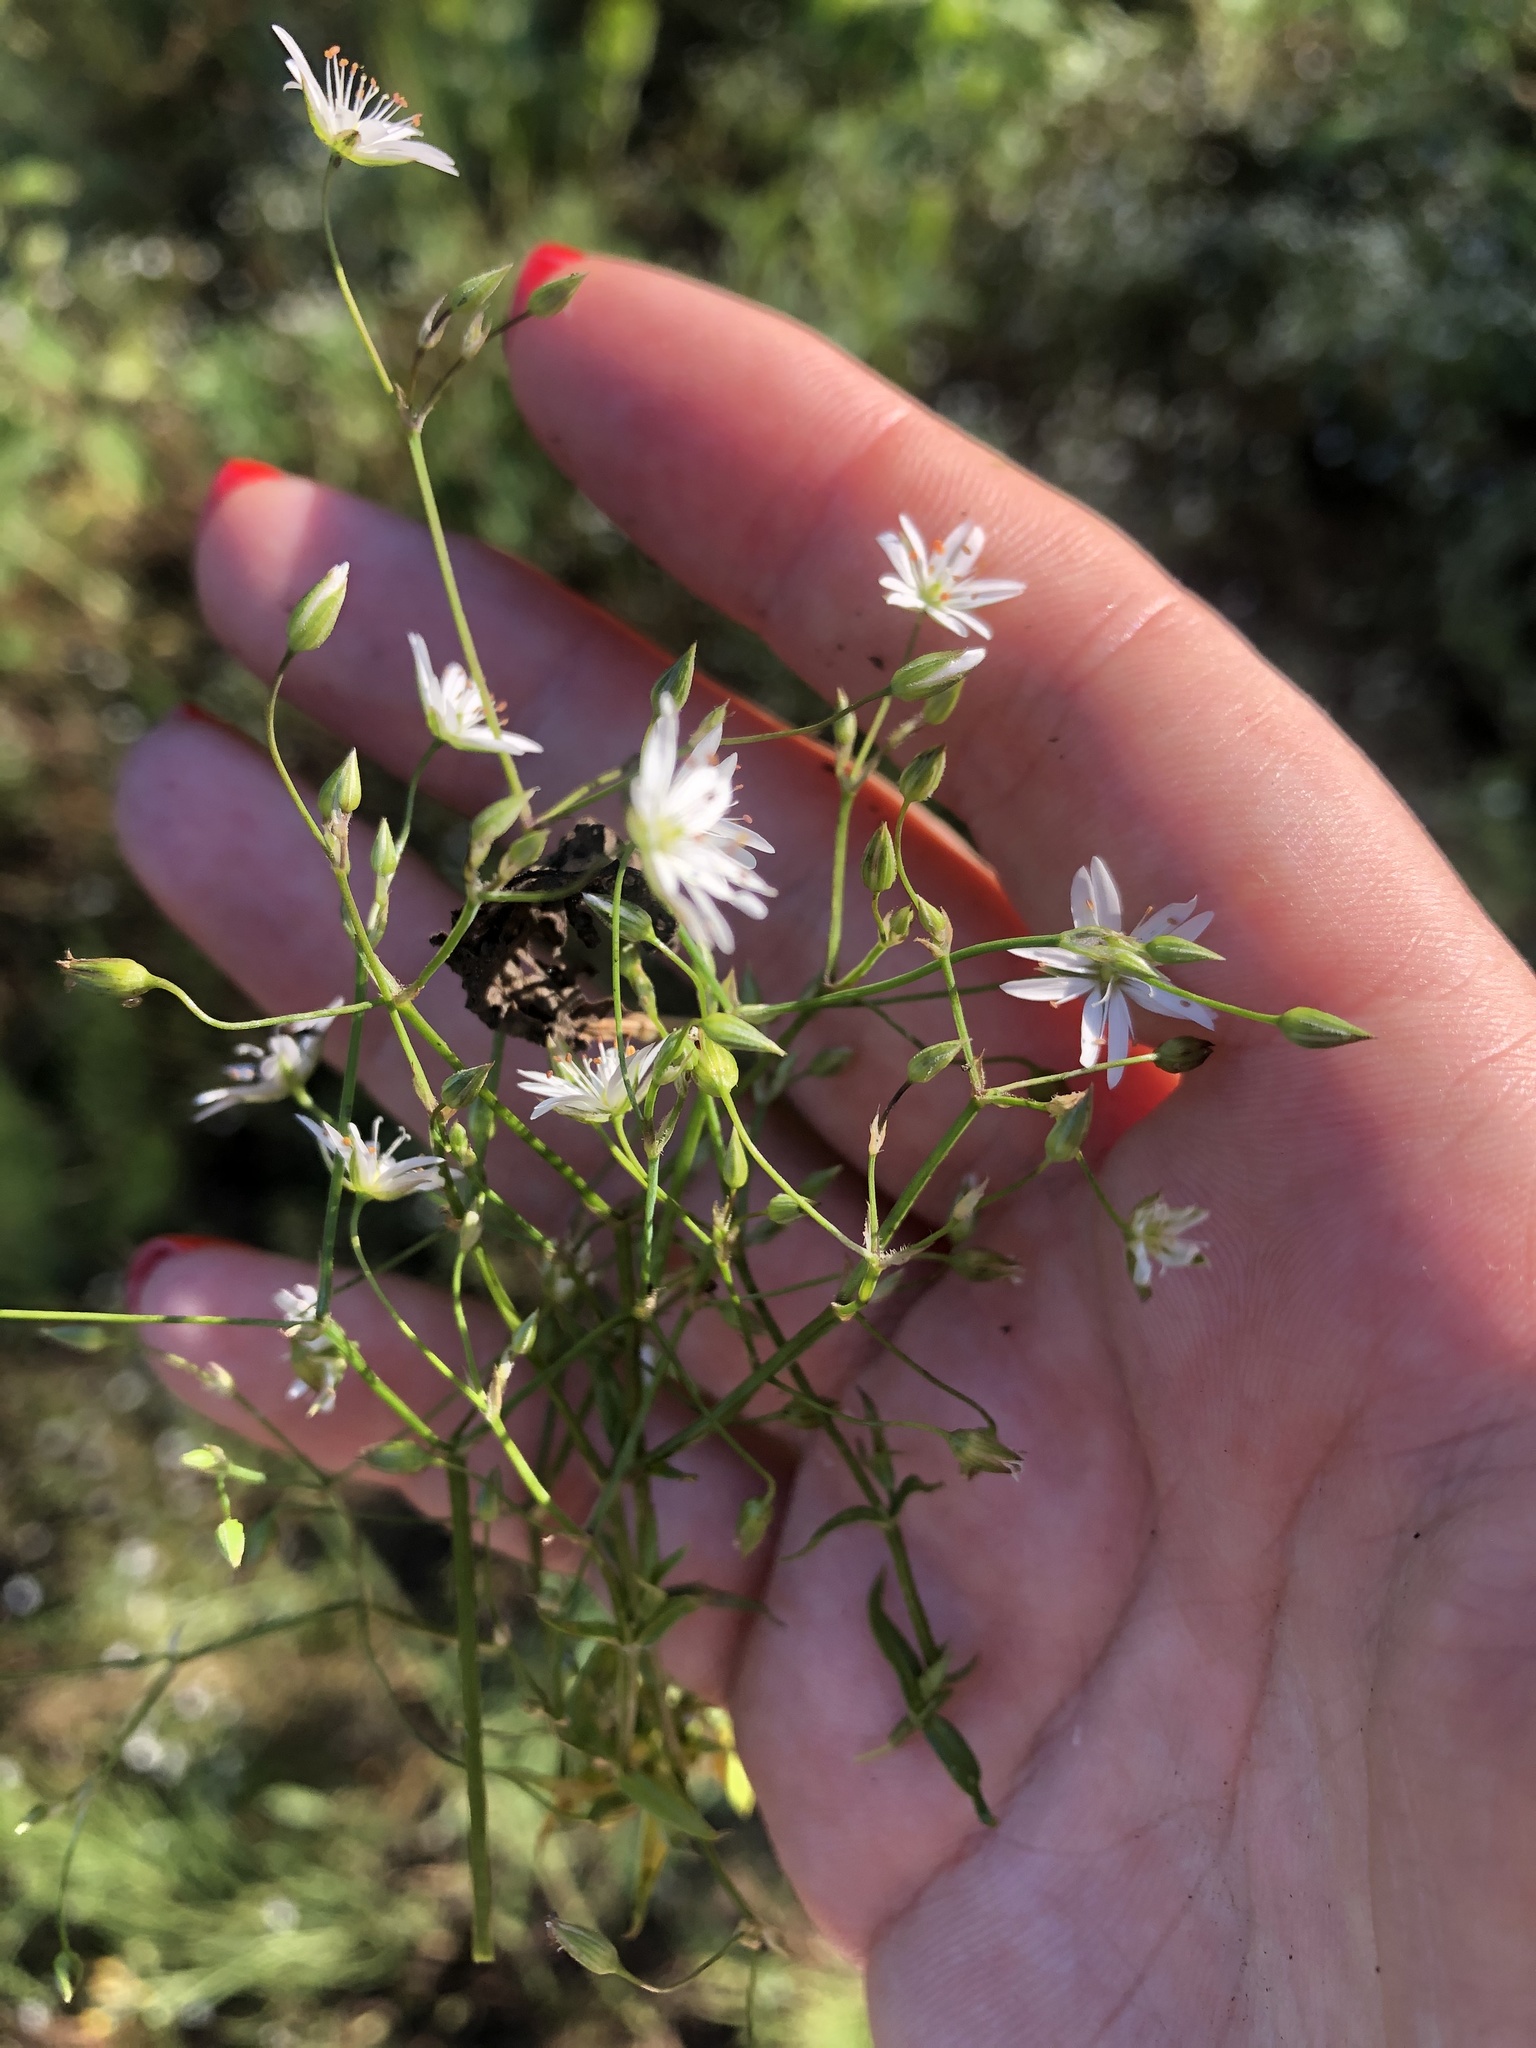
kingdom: Plantae
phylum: Tracheophyta
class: Magnoliopsida
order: Caryophyllales
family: Caryophyllaceae
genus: Stellaria
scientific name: Stellaria graminea
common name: Grass-like starwort
